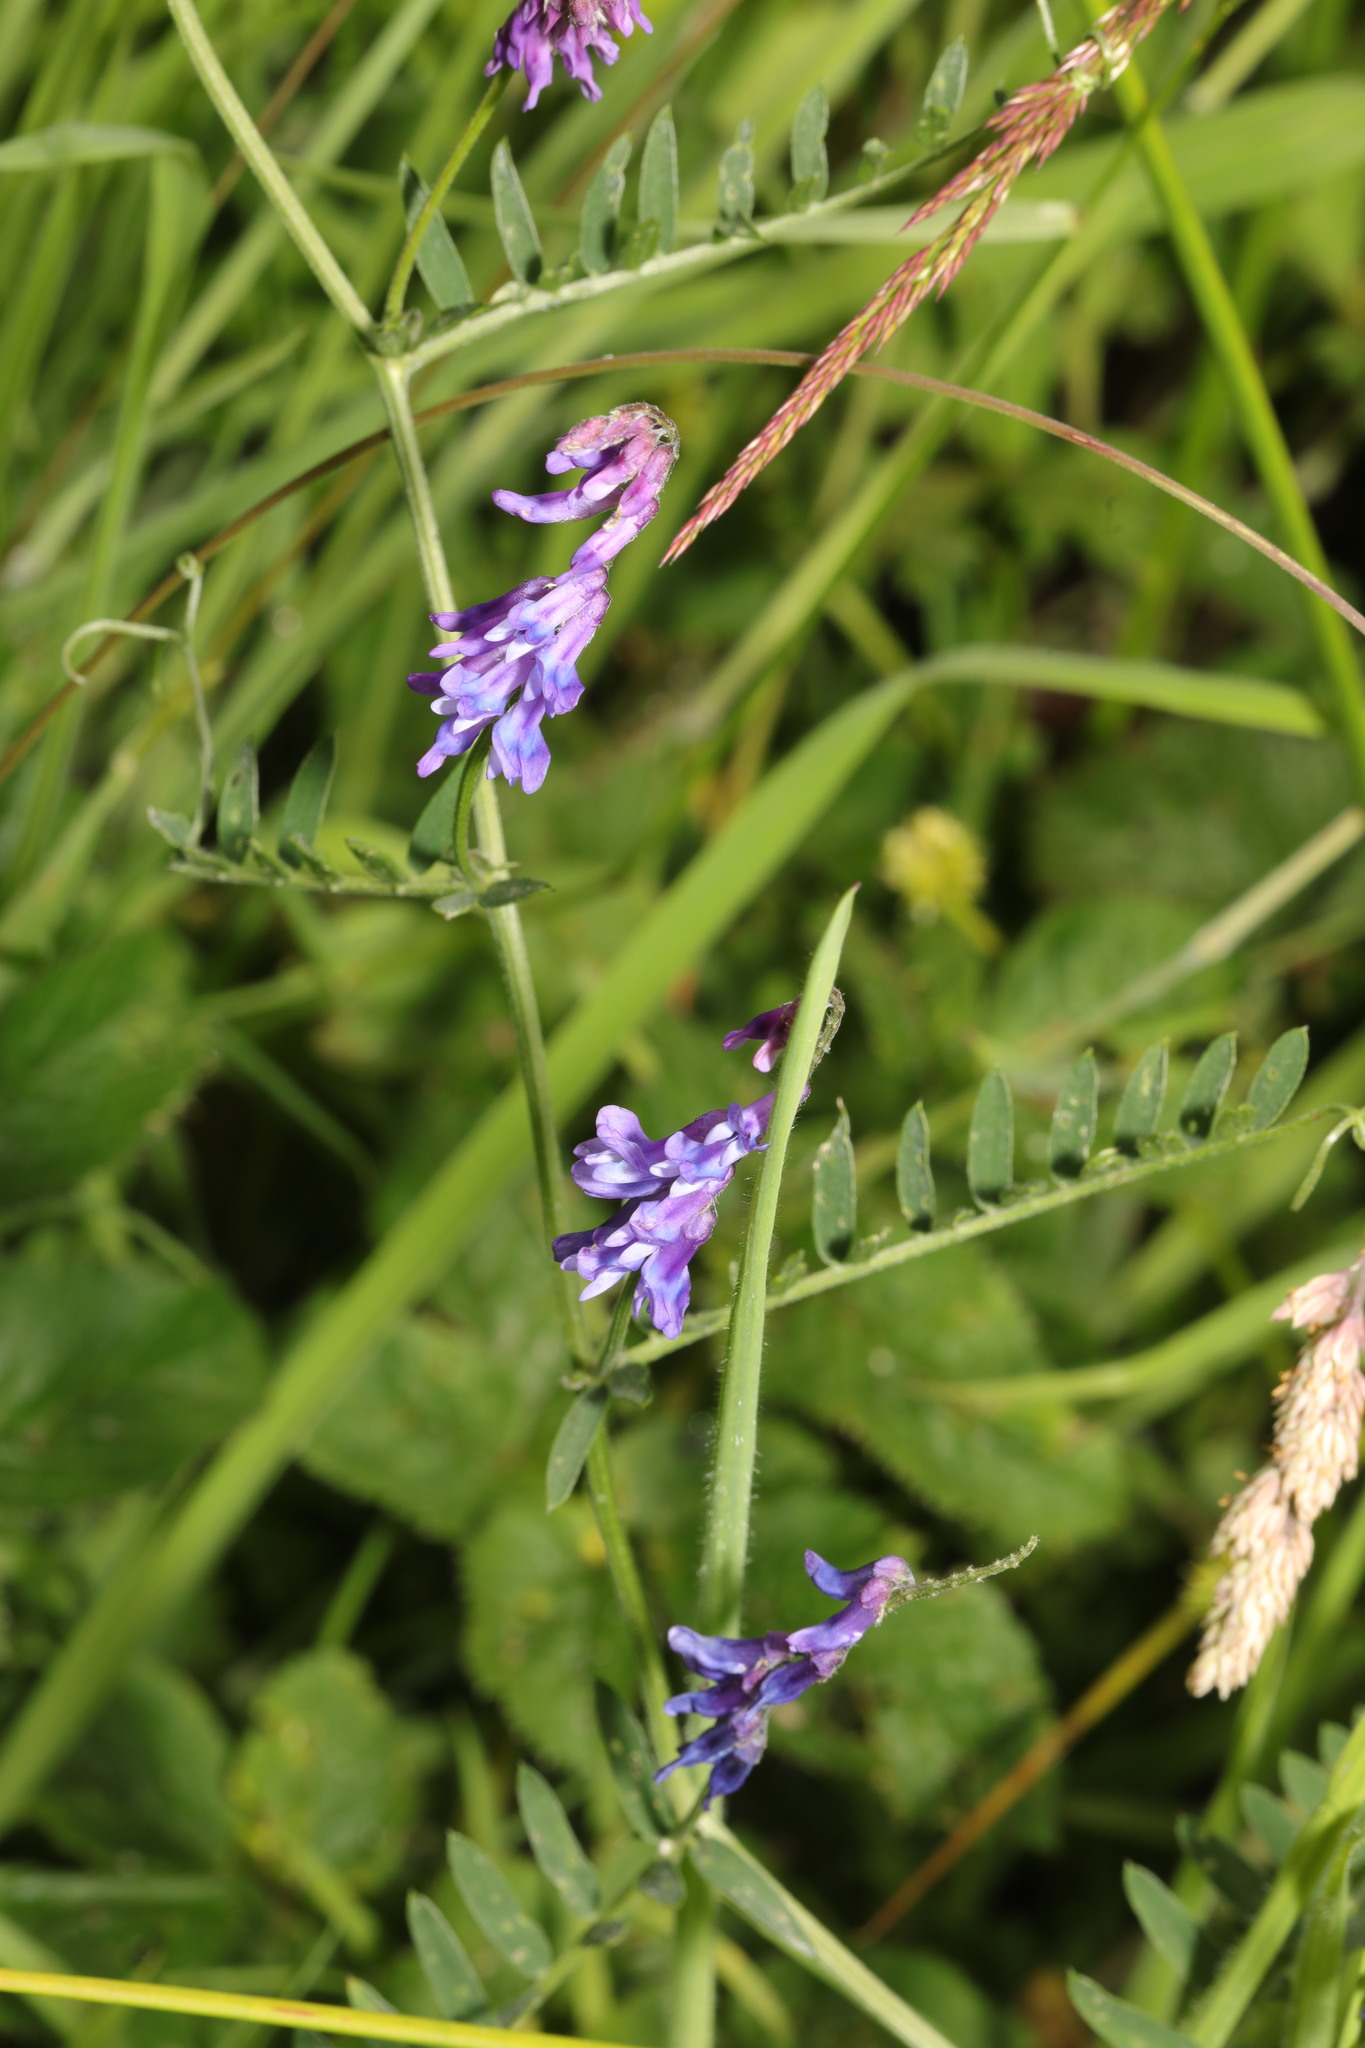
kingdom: Plantae
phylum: Tracheophyta
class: Magnoliopsida
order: Fabales
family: Fabaceae
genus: Vicia
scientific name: Vicia cracca
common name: Bird vetch
